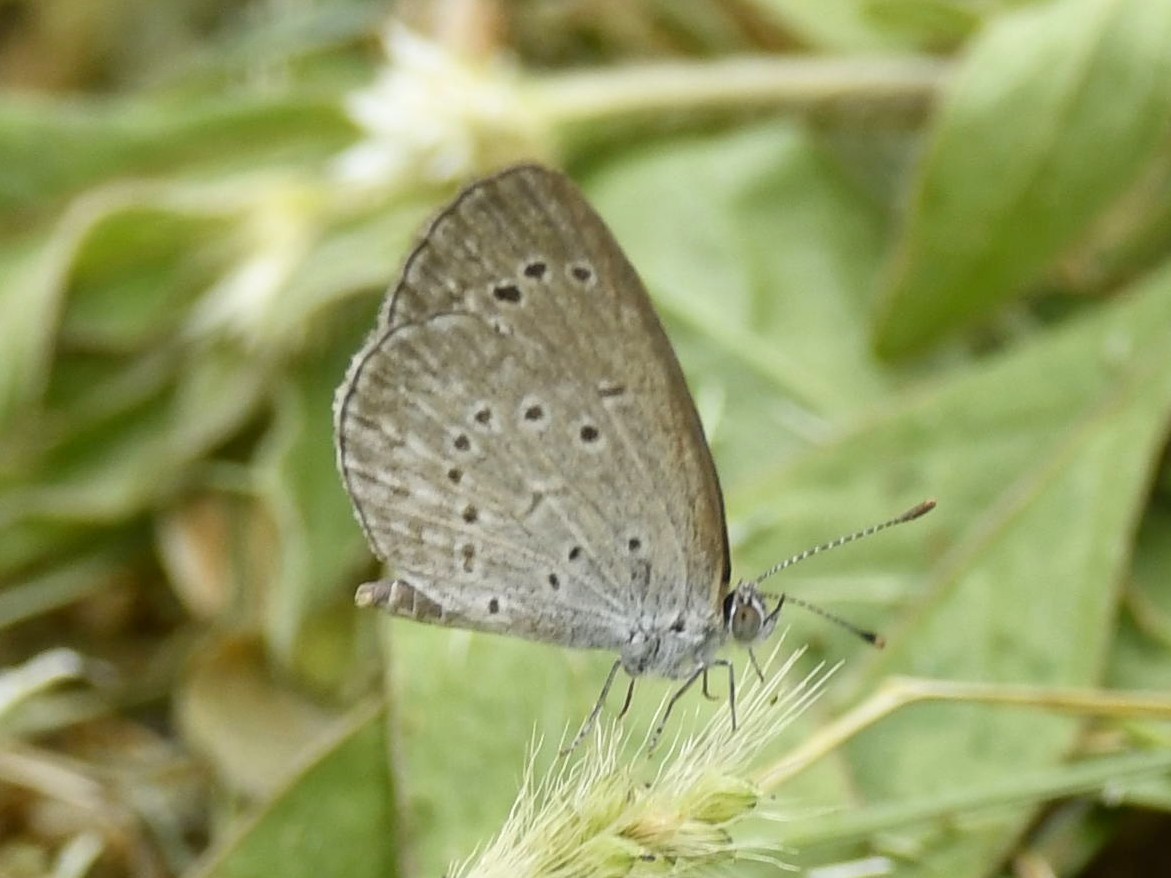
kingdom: Animalia
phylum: Arthropoda
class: Insecta
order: Lepidoptera
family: Lycaenidae
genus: Pseudozizeeria
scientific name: Pseudozizeeria maha
